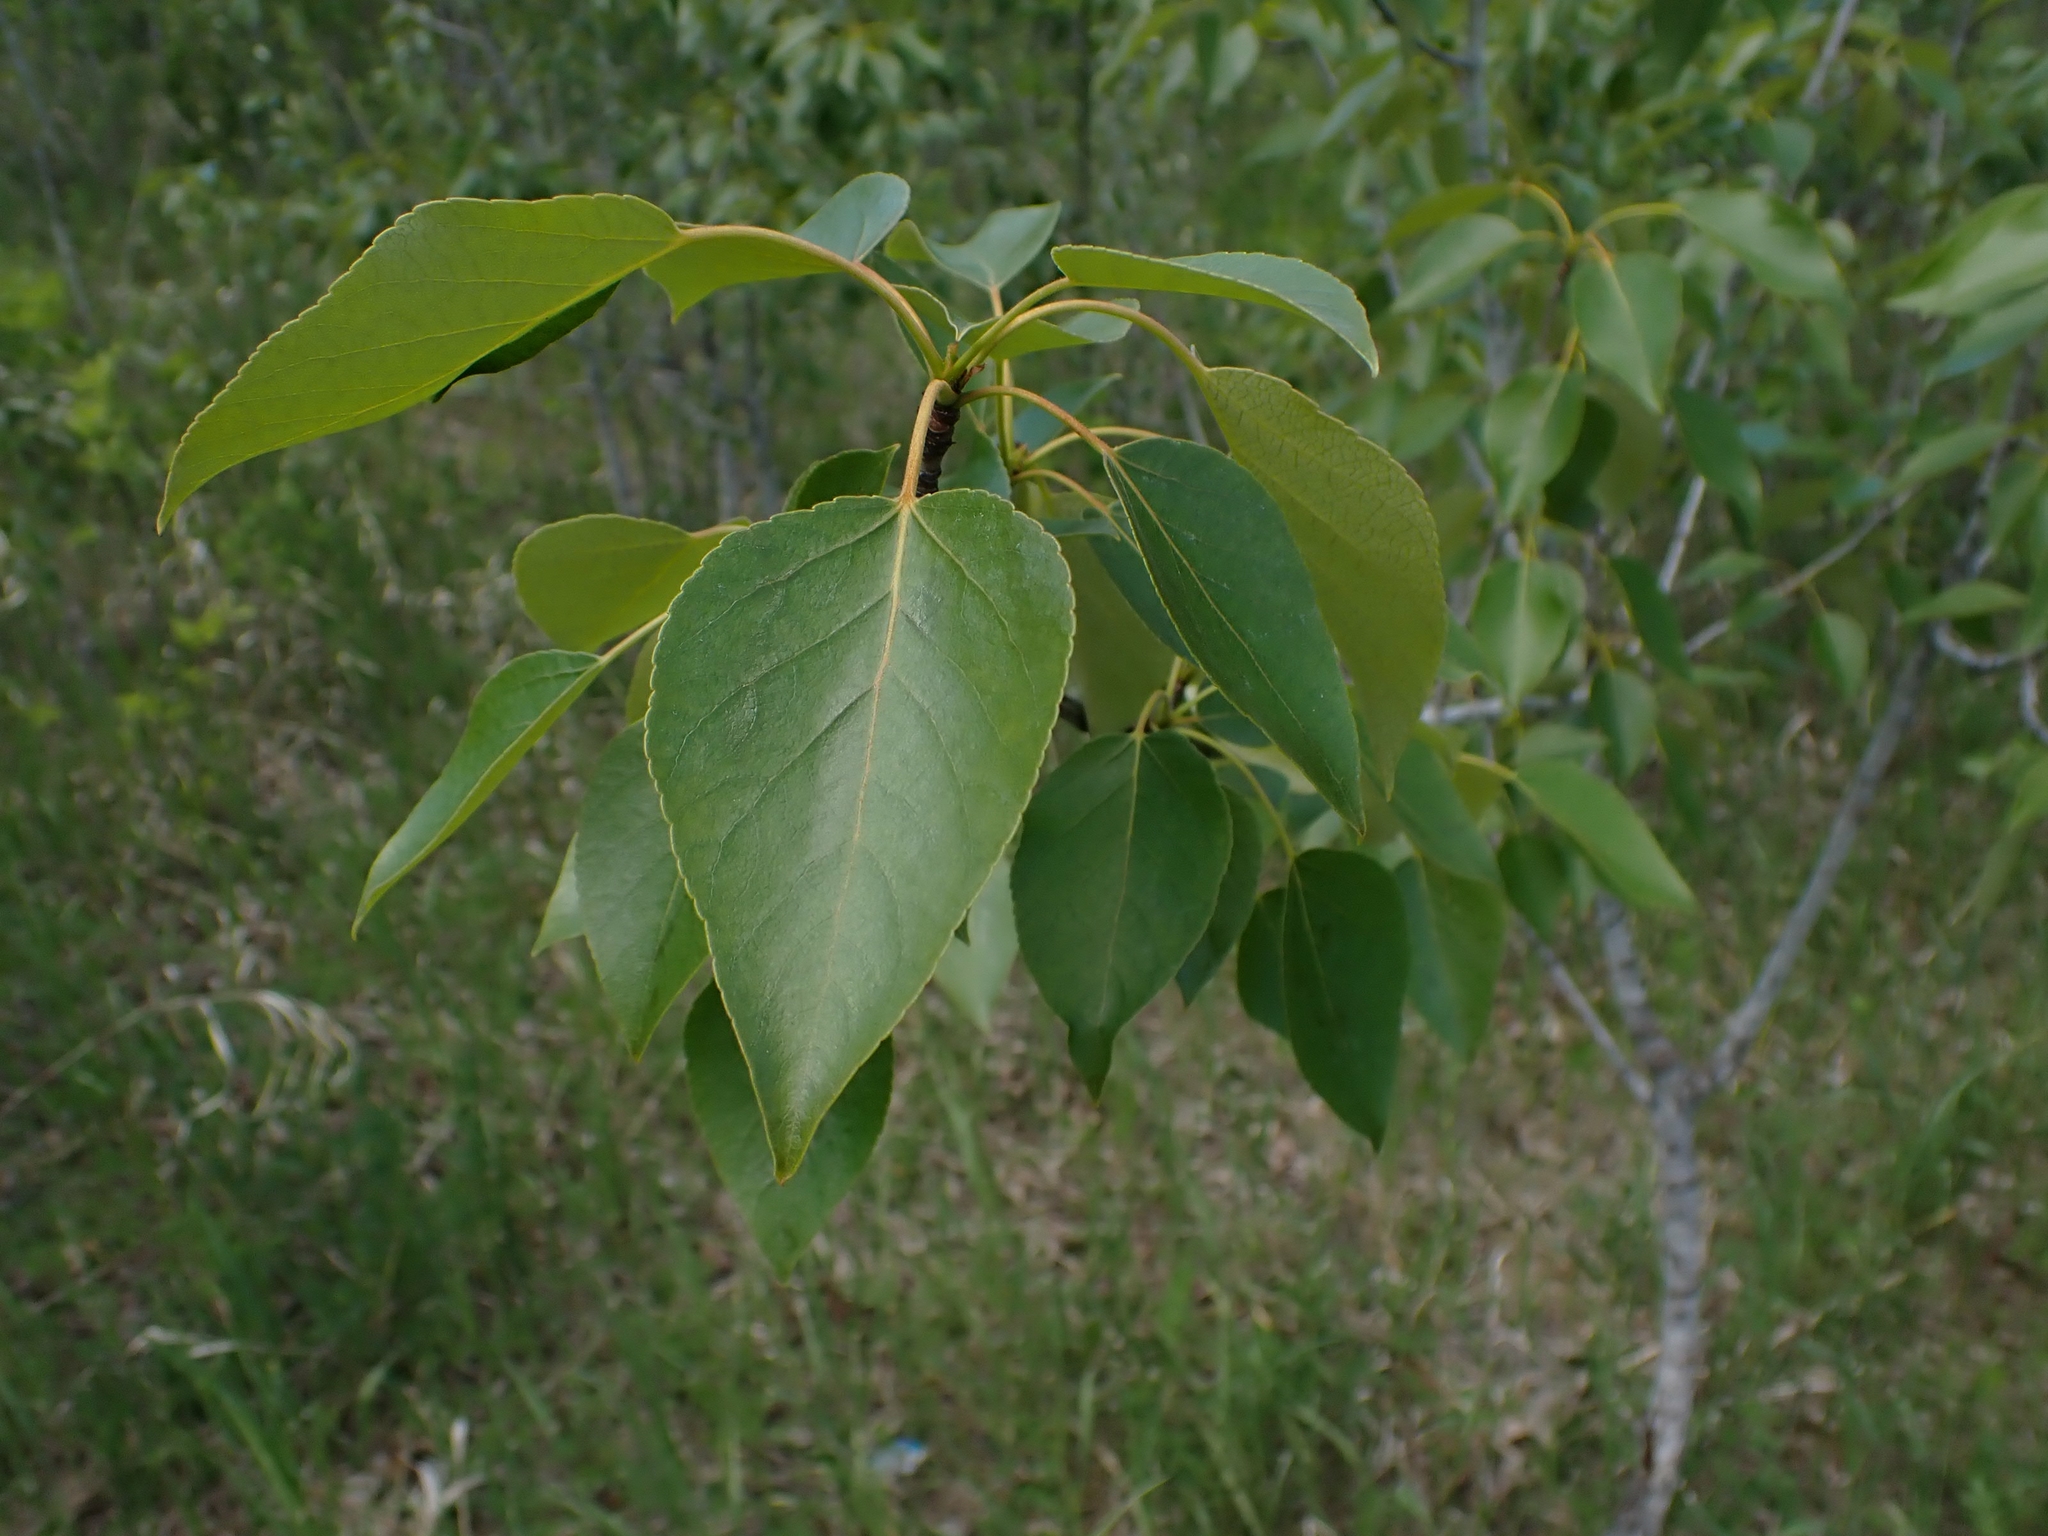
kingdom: Plantae
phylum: Tracheophyta
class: Magnoliopsida
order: Malpighiales
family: Salicaceae
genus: Populus
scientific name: Populus balsamifera
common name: Balsam poplar
